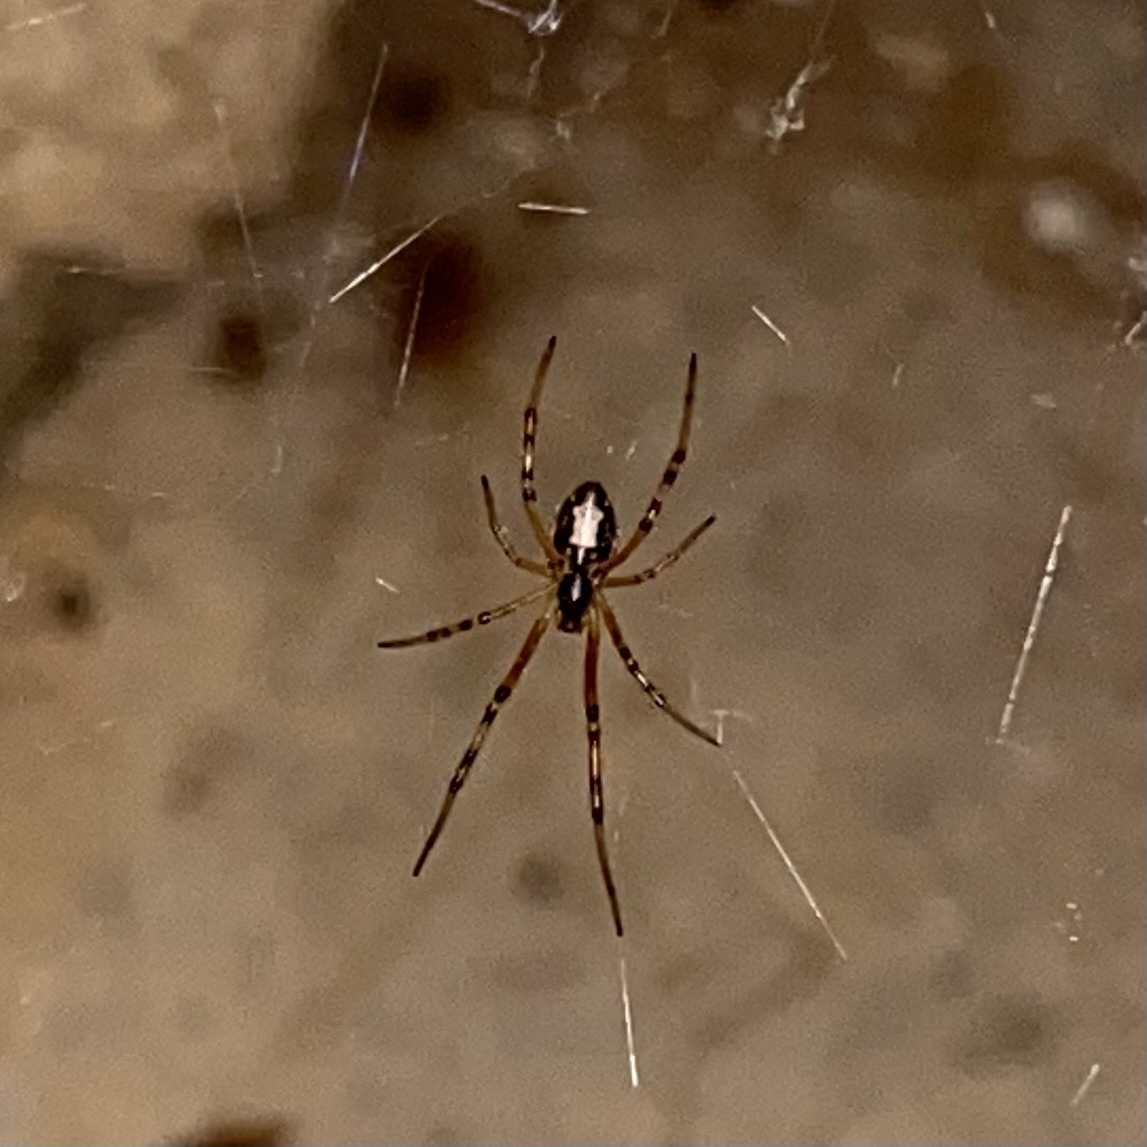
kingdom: Animalia
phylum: Arthropoda
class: Arachnida
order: Araneae
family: Theridiidae
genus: Latrodectus
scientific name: Latrodectus hesperus
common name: Western black widow
